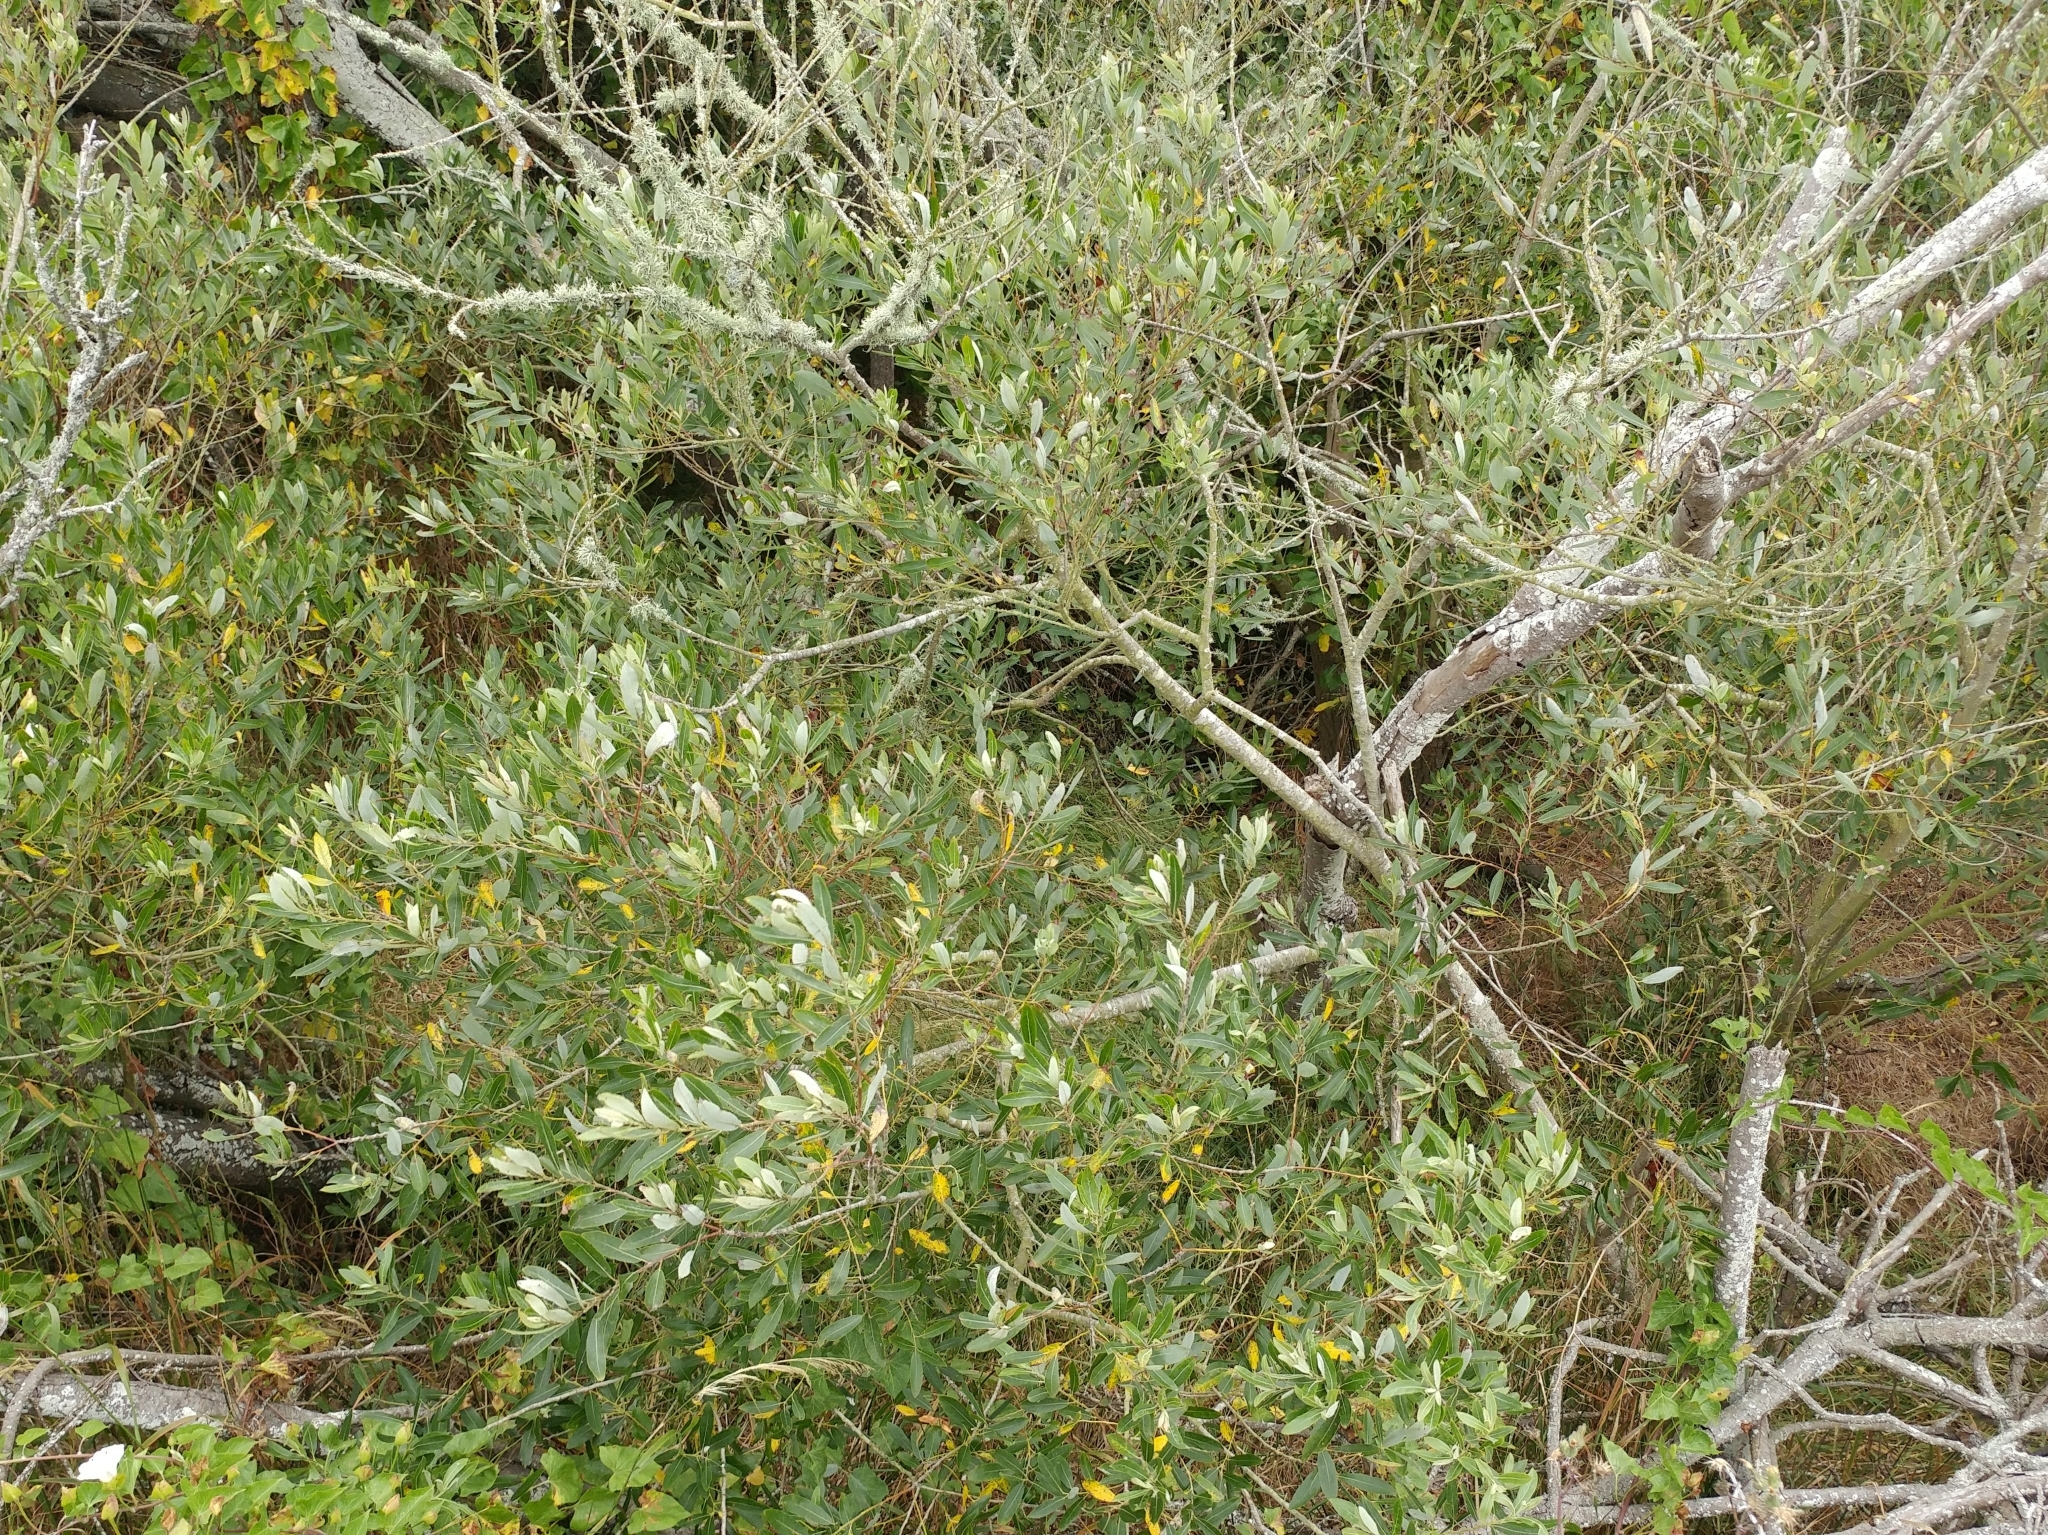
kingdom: Plantae
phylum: Tracheophyta
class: Magnoliopsida
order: Malpighiales
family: Salicaceae
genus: Salix
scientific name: Salix lasiolepis
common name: Arroyo willow
